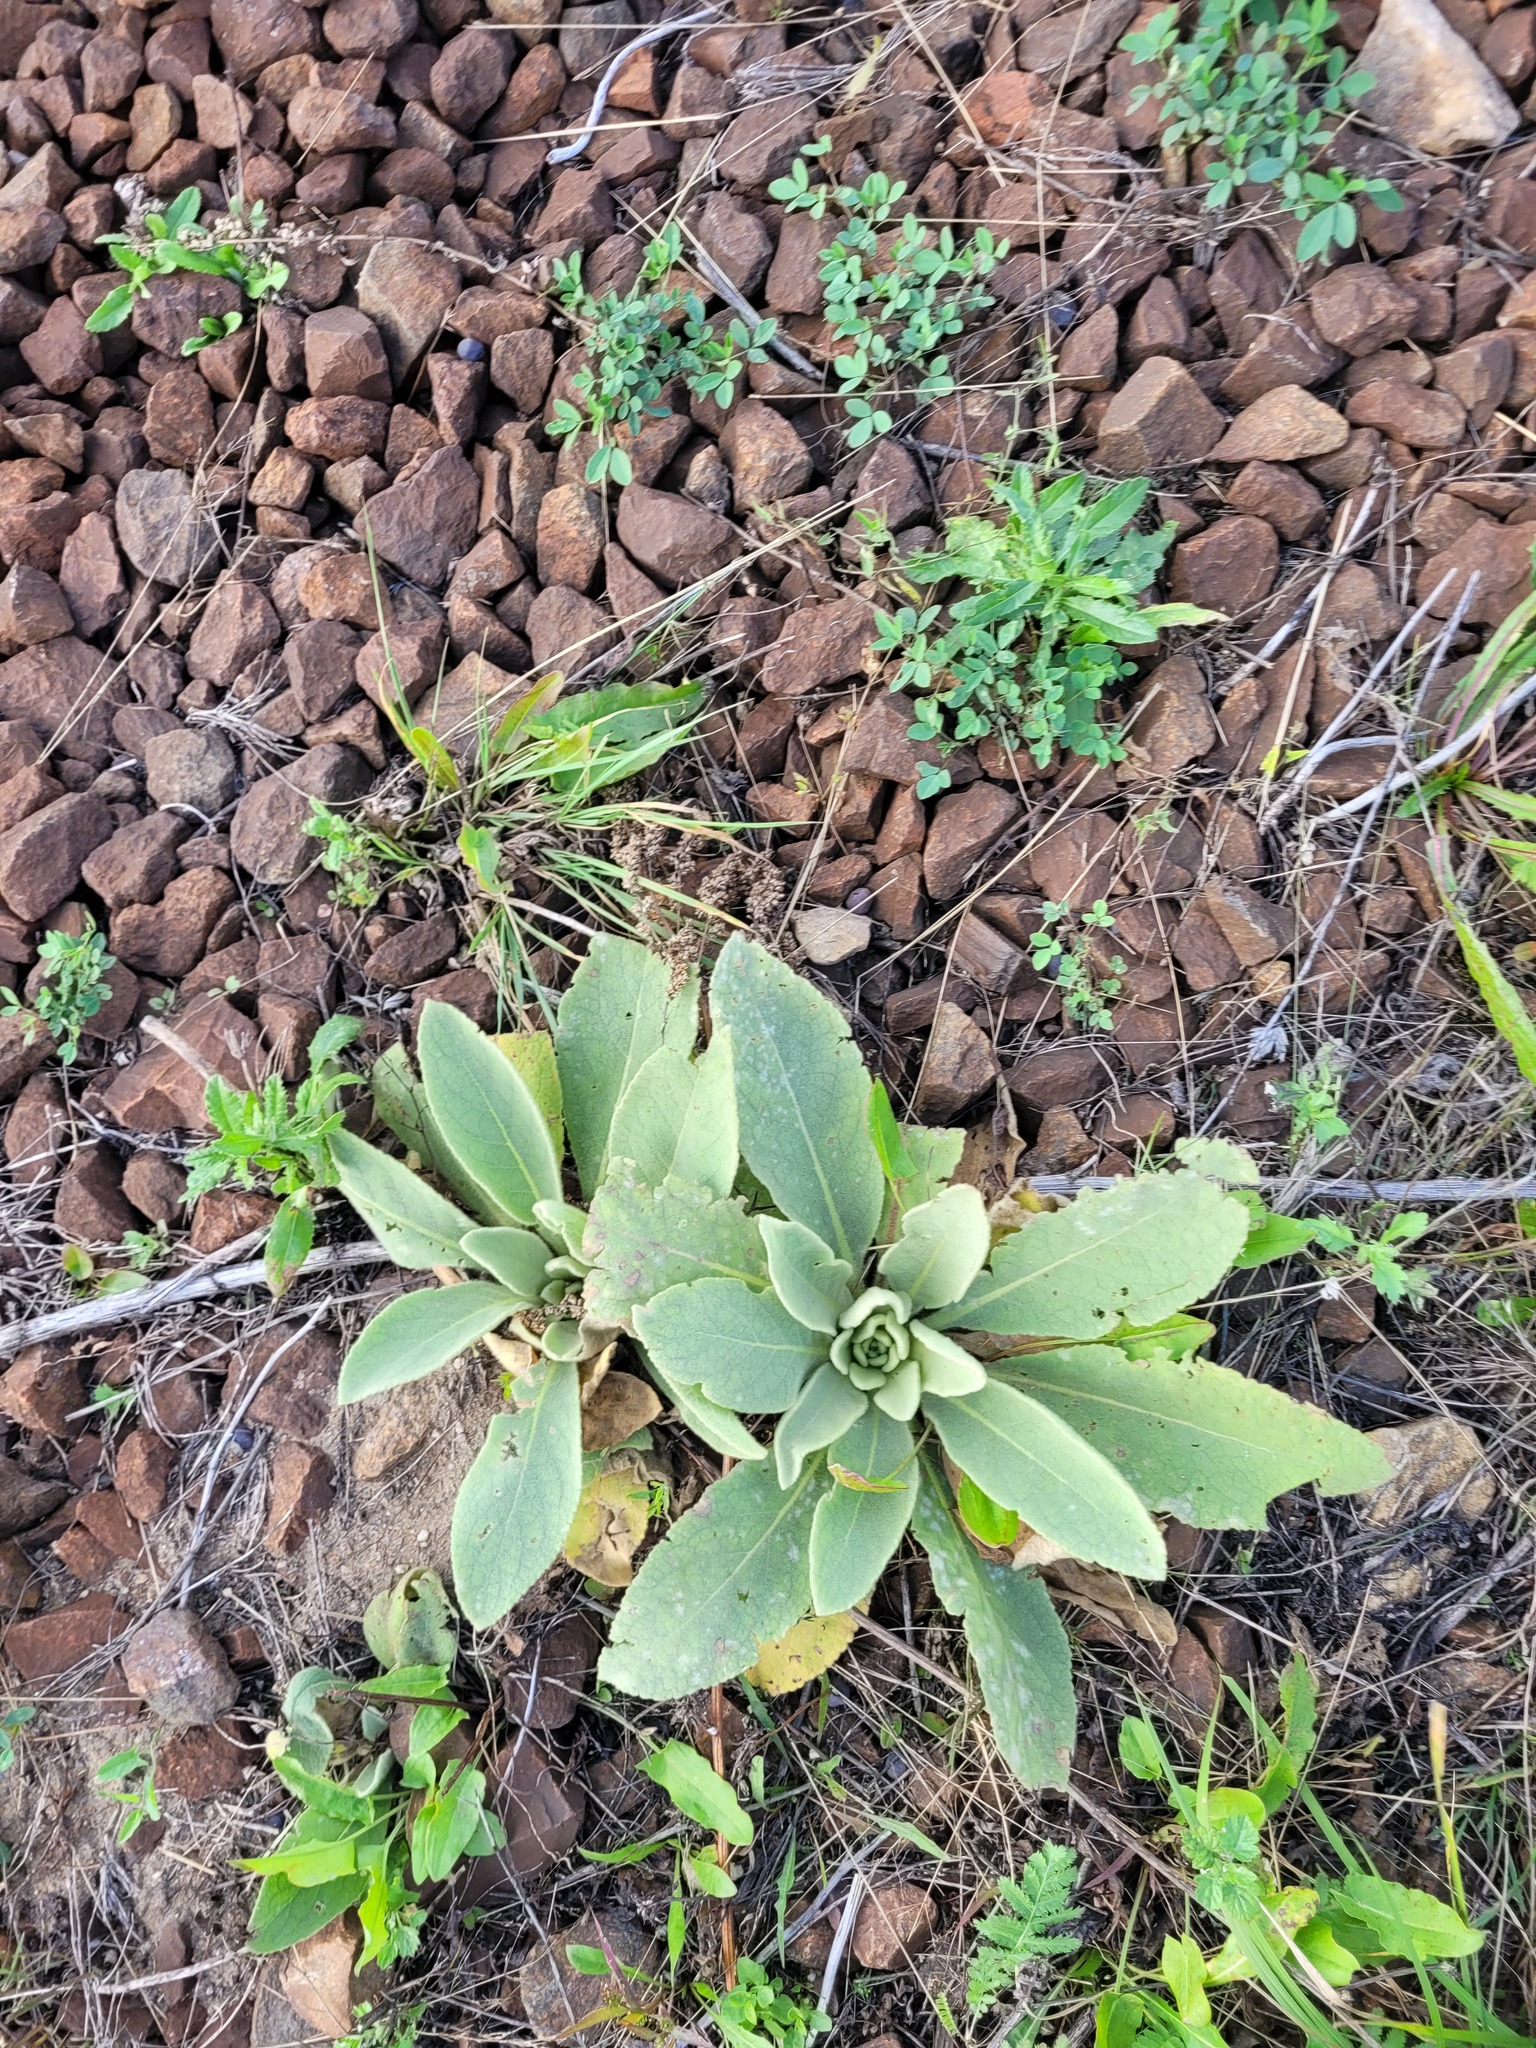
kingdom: Plantae
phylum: Tracheophyta
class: Magnoliopsida
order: Lamiales
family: Scrophulariaceae
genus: Verbascum
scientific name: Verbascum thapsus
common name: Common mullein
